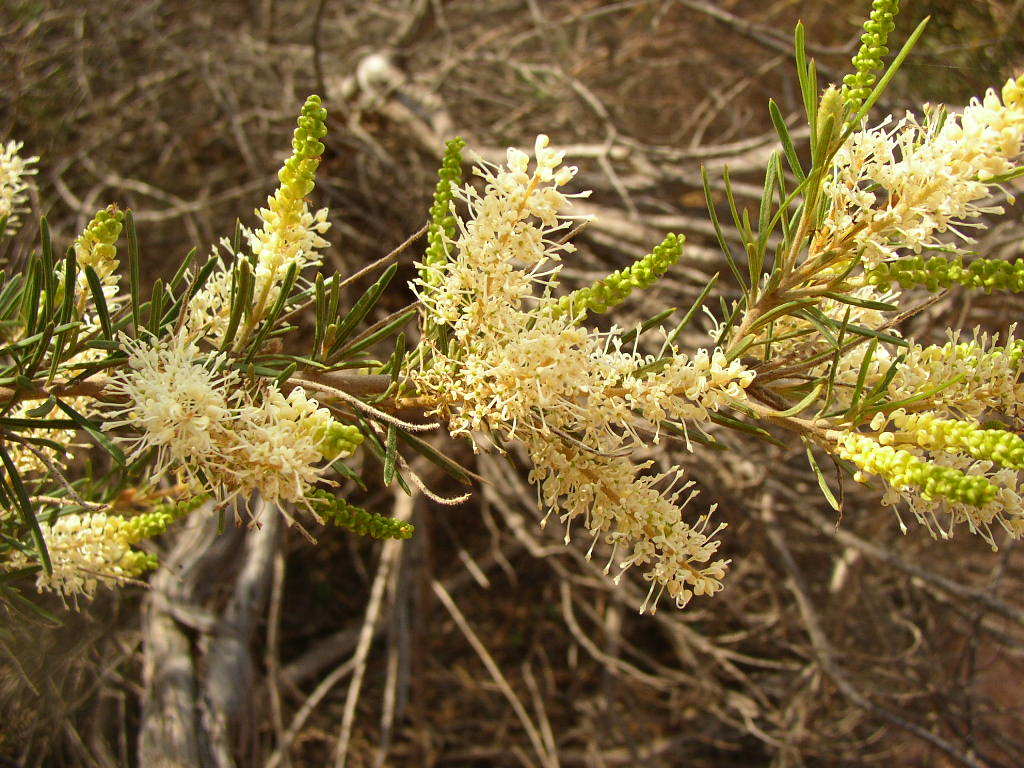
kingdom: Plantae
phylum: Tracheophyta
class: Magnoliopsida
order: Proteales
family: Proteaceae
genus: Grevillea
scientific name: Grevillea biformis
